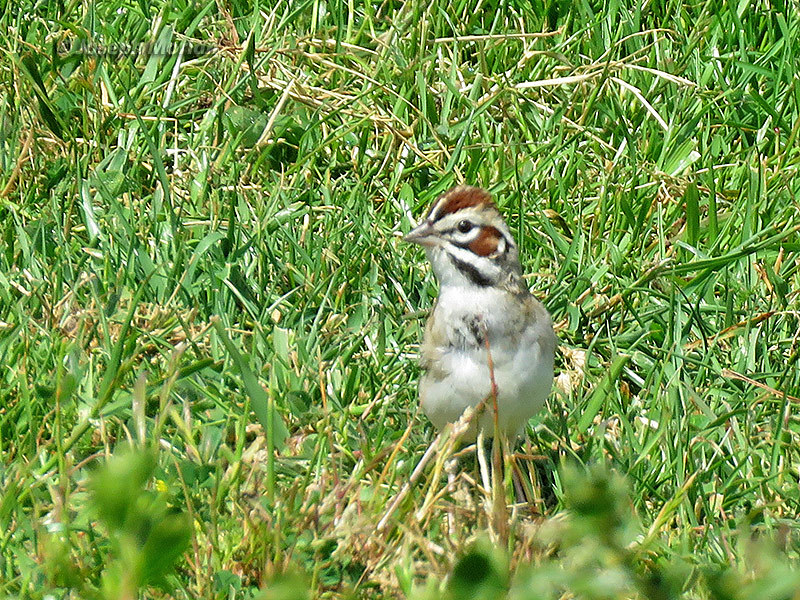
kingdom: Animalia
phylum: Chordata
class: Aves
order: Passeriformes
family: Passerellidae
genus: Chondestes
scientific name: Chondestes grammacus
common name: Lark sparrow
